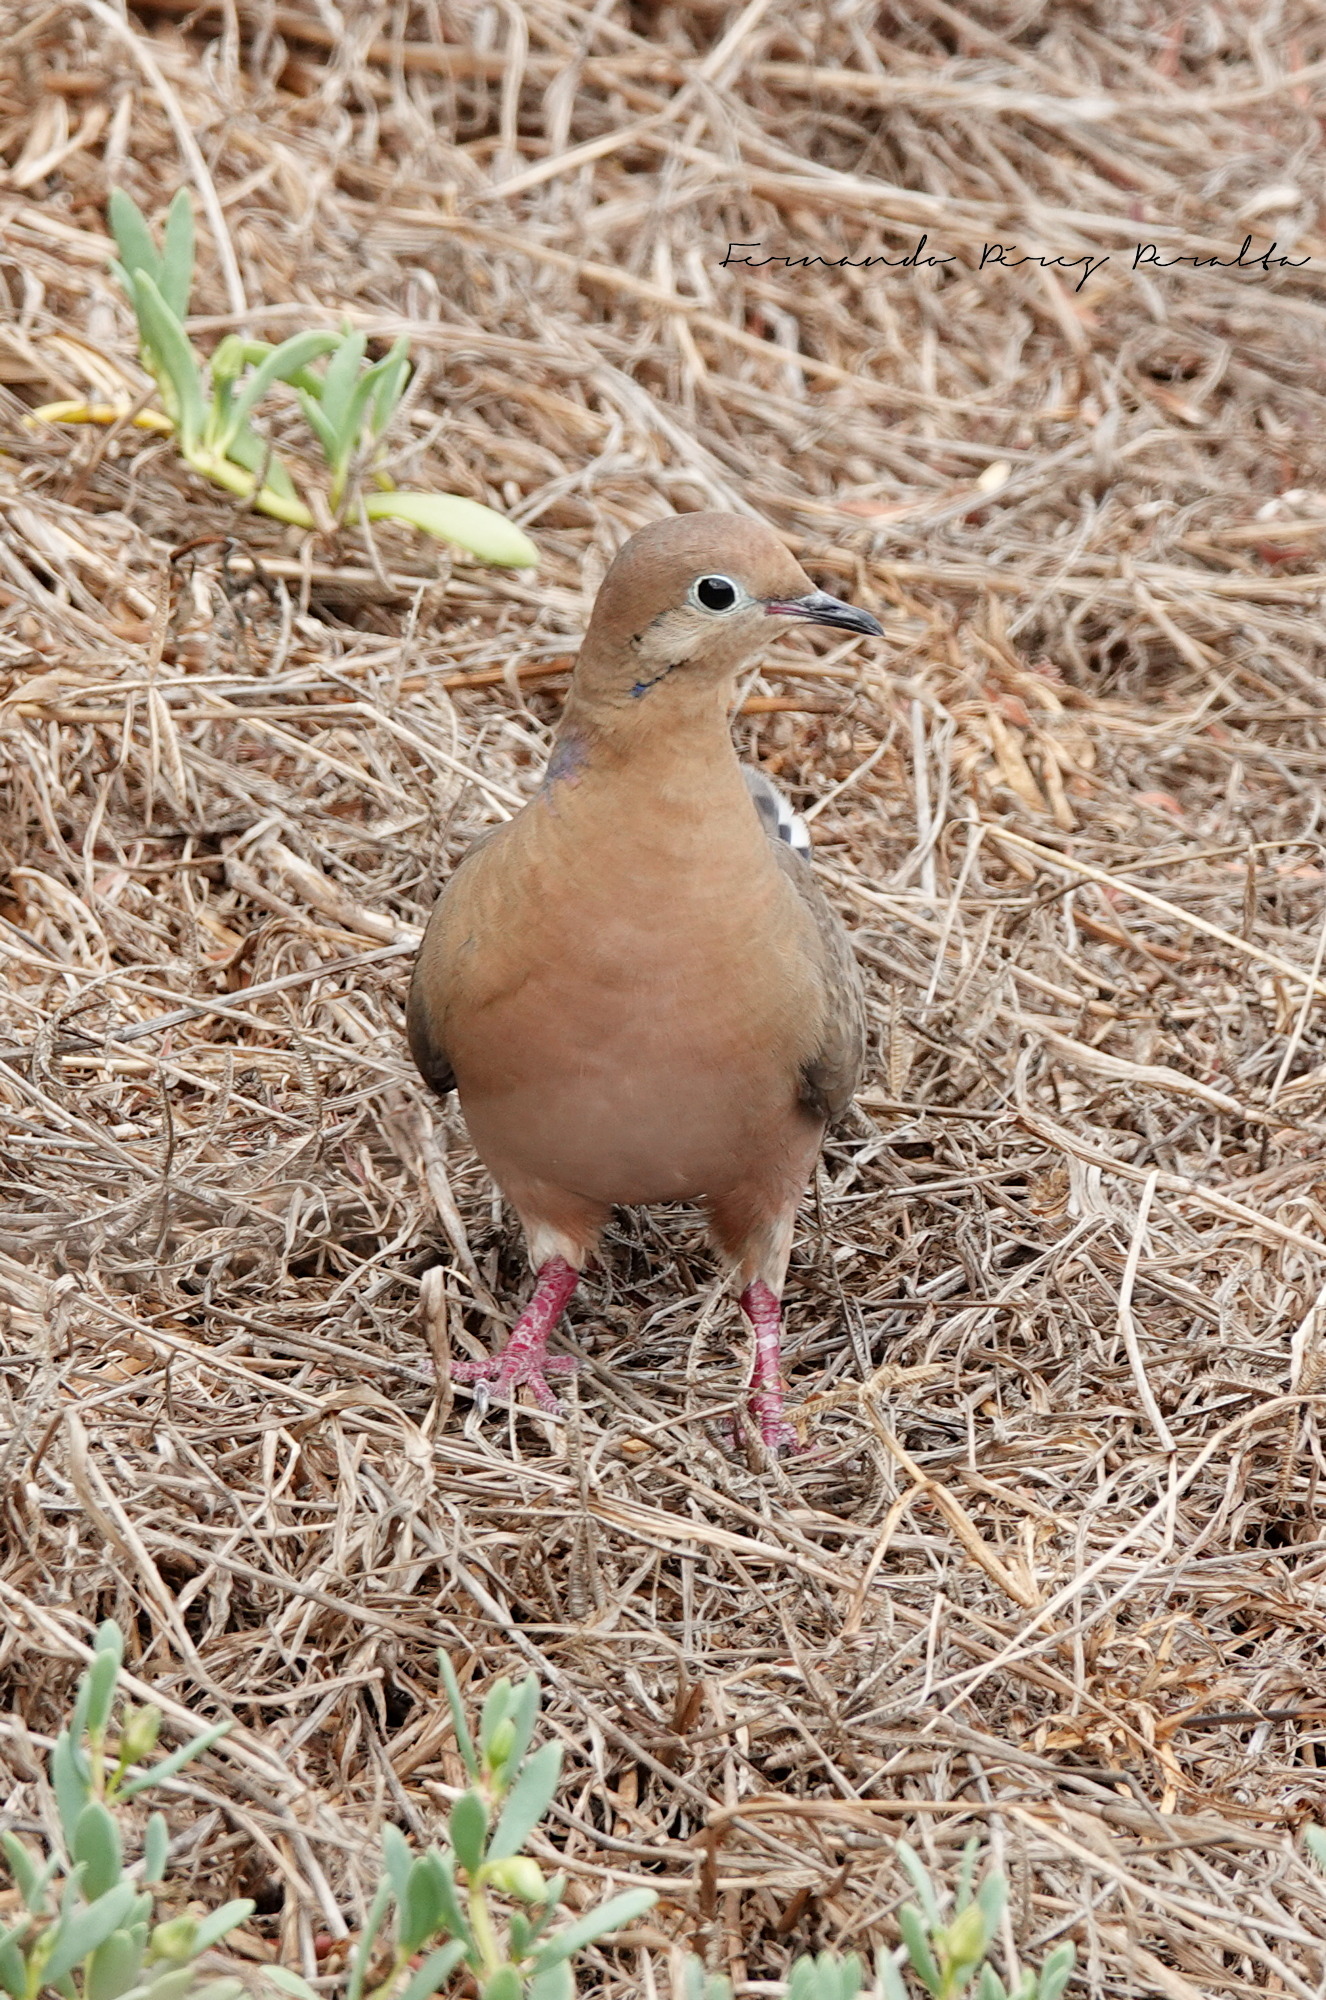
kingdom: Animalia
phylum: Chordata
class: Aves
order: Columbiformes
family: Columbidae
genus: Zenaida
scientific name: Zenaida aurita
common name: Zenaida dove
